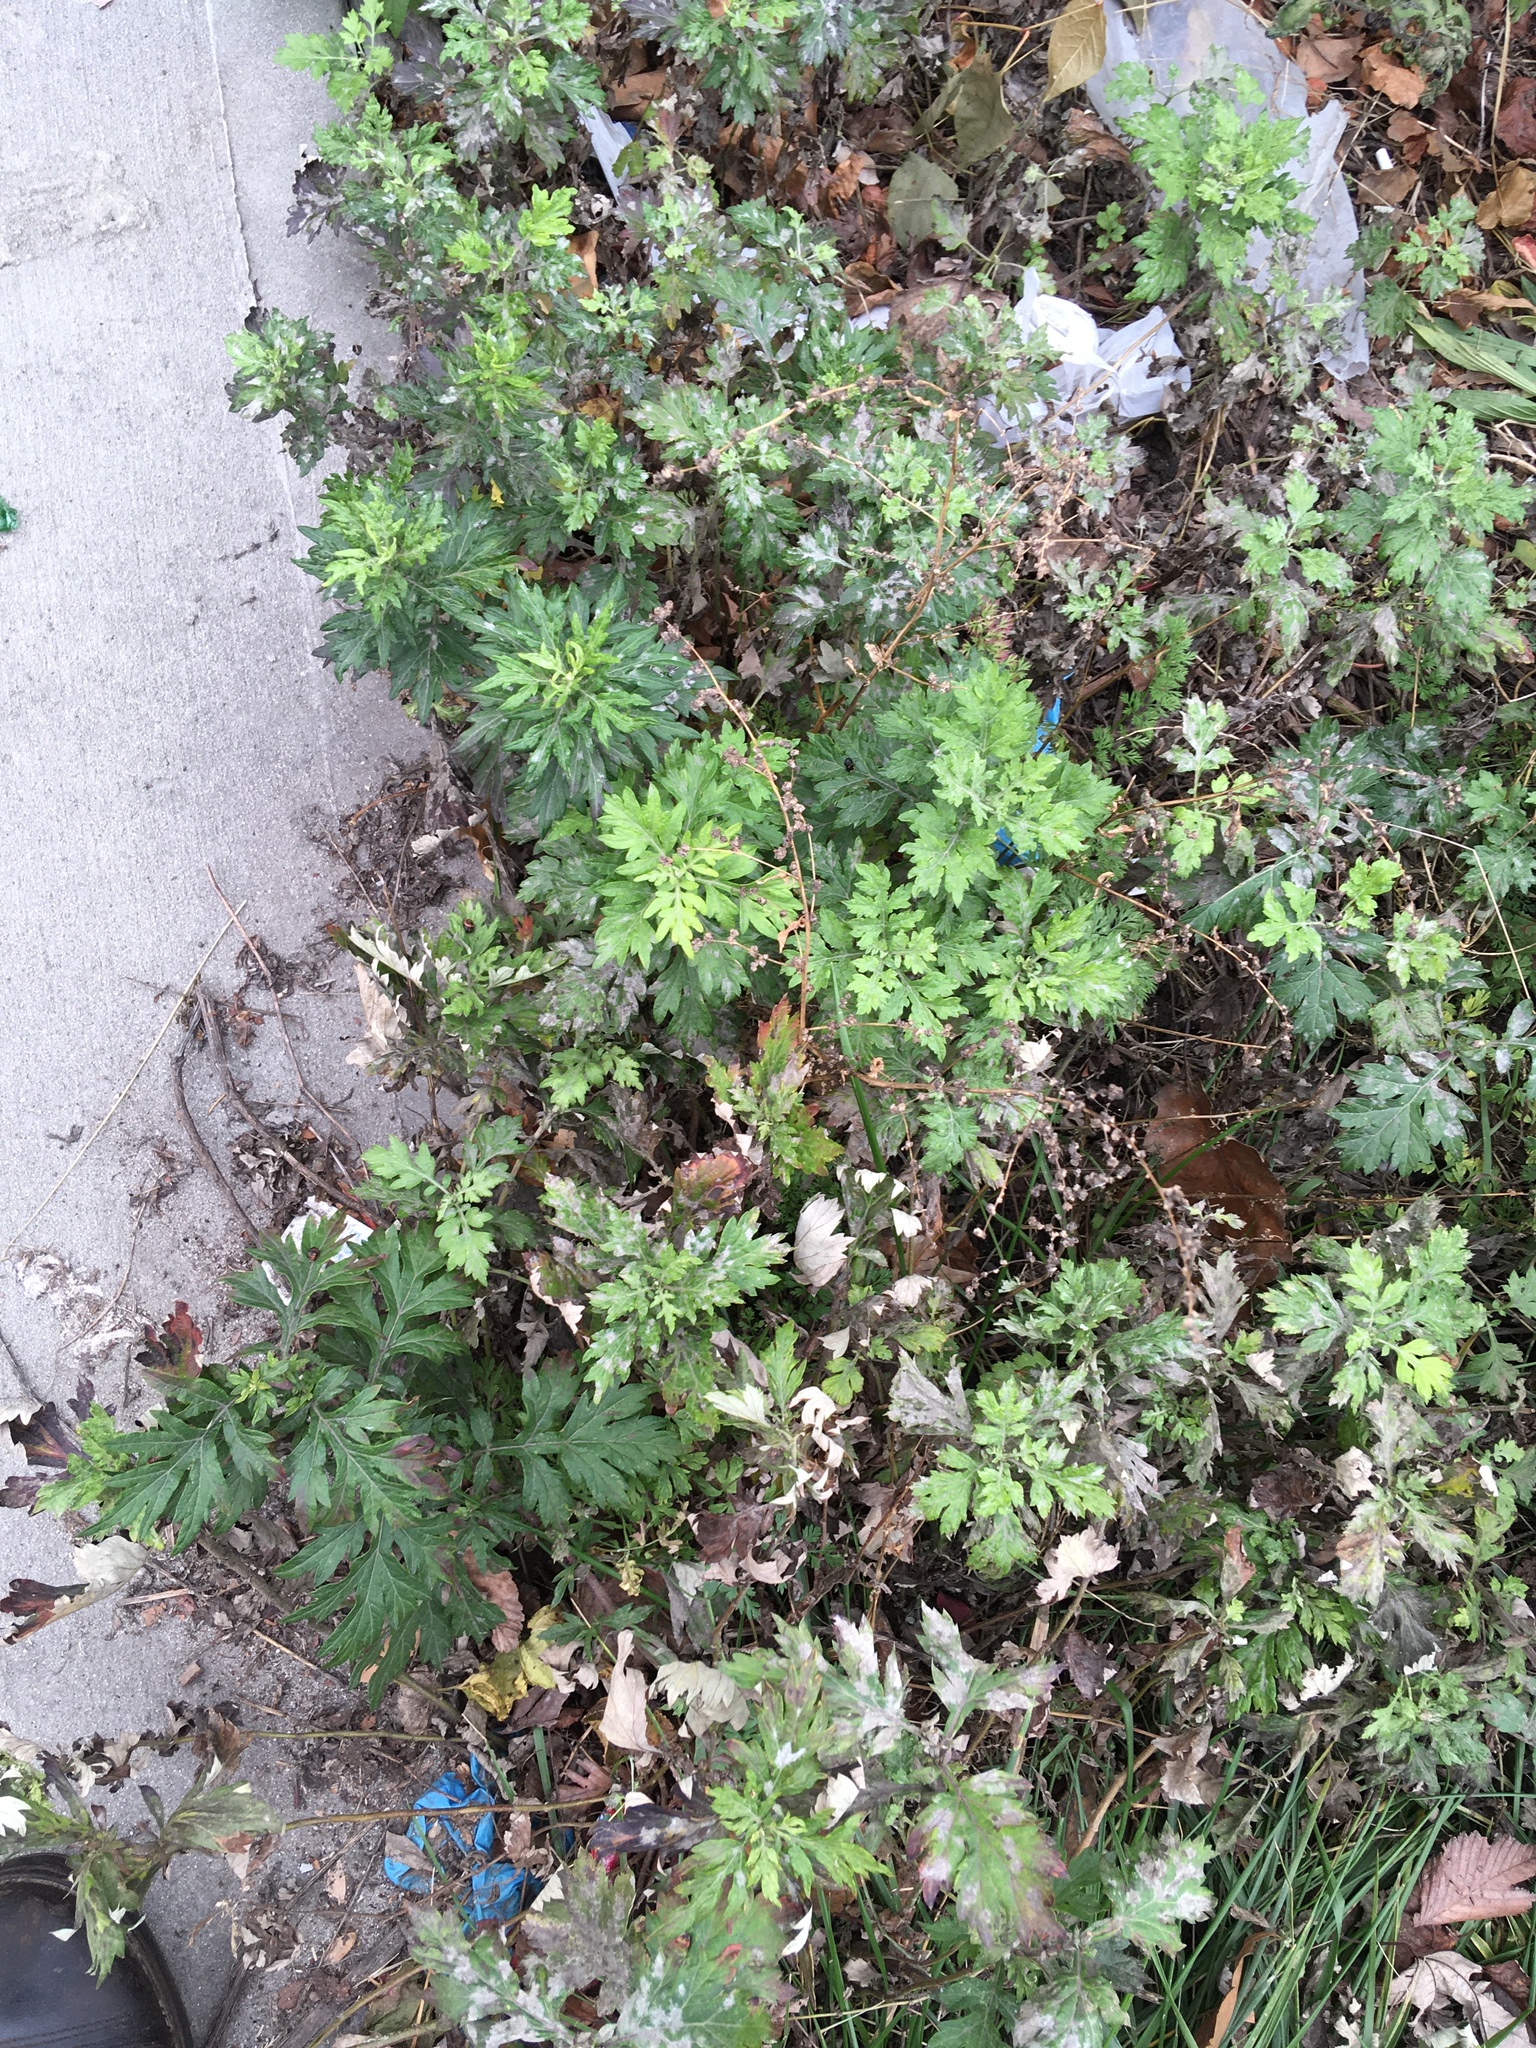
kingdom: Plantae
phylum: Tracheophyta
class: Magnoliopsida
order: Asterales
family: Asteraceae
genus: Artemisia
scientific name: Artemisia vulgaris
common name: Mugwort
